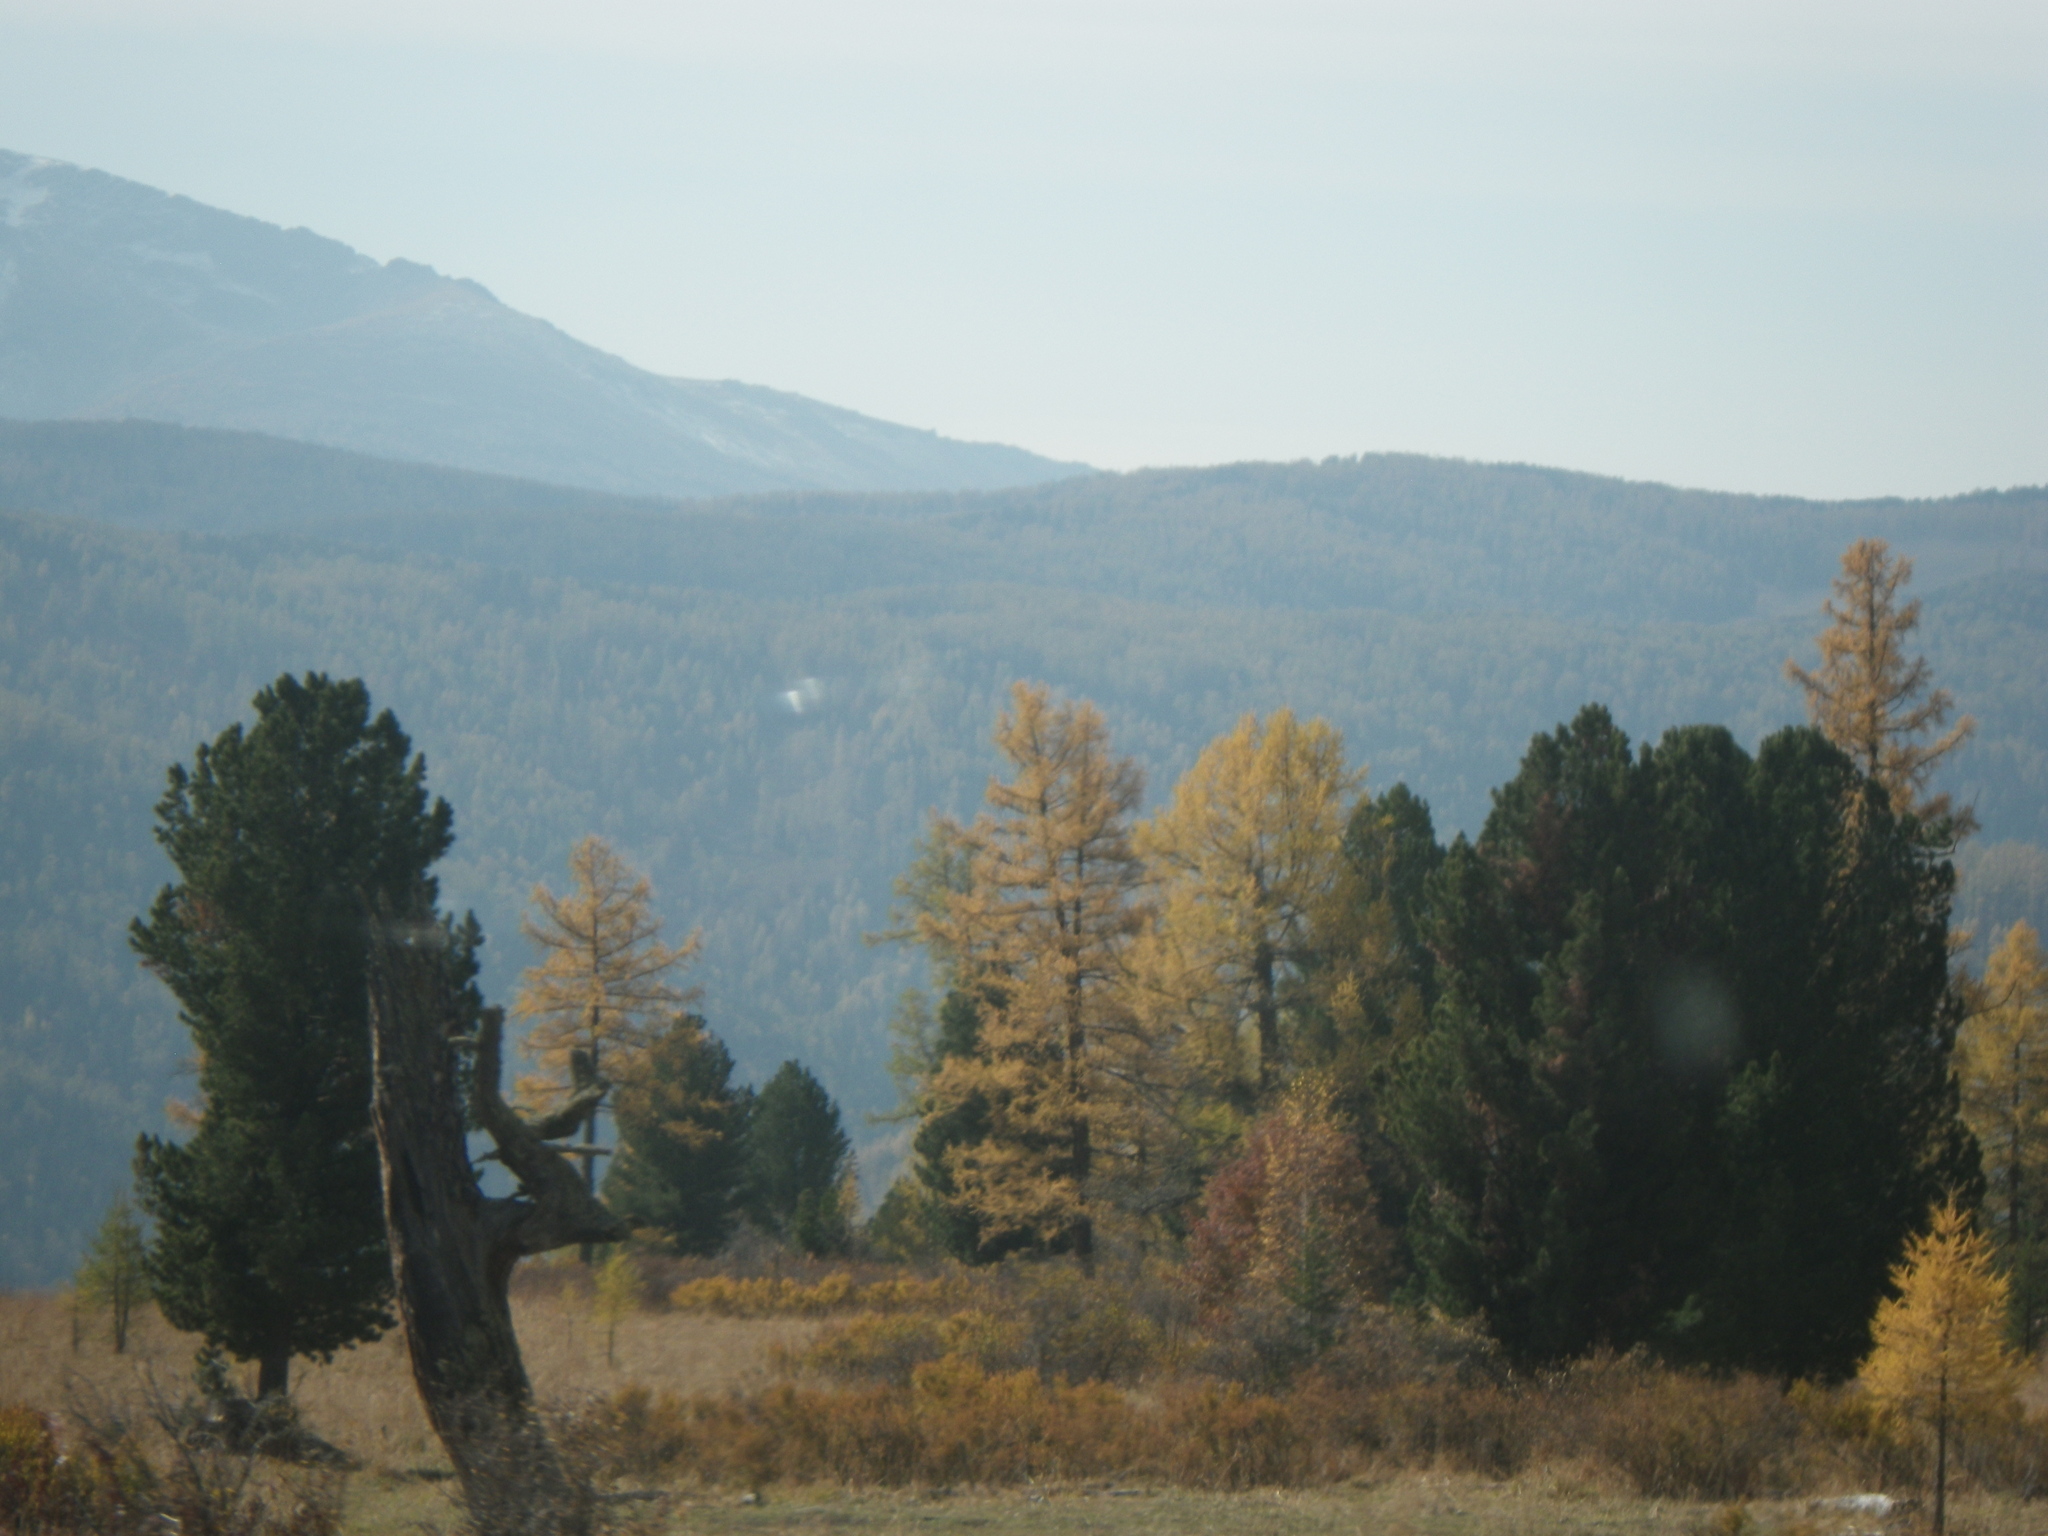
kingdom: Plantae
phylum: Tracheophyta
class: Pinopsida
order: Pinales
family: Pinaceae
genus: Pinus
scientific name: Pinus sibirica
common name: Siberian pine
